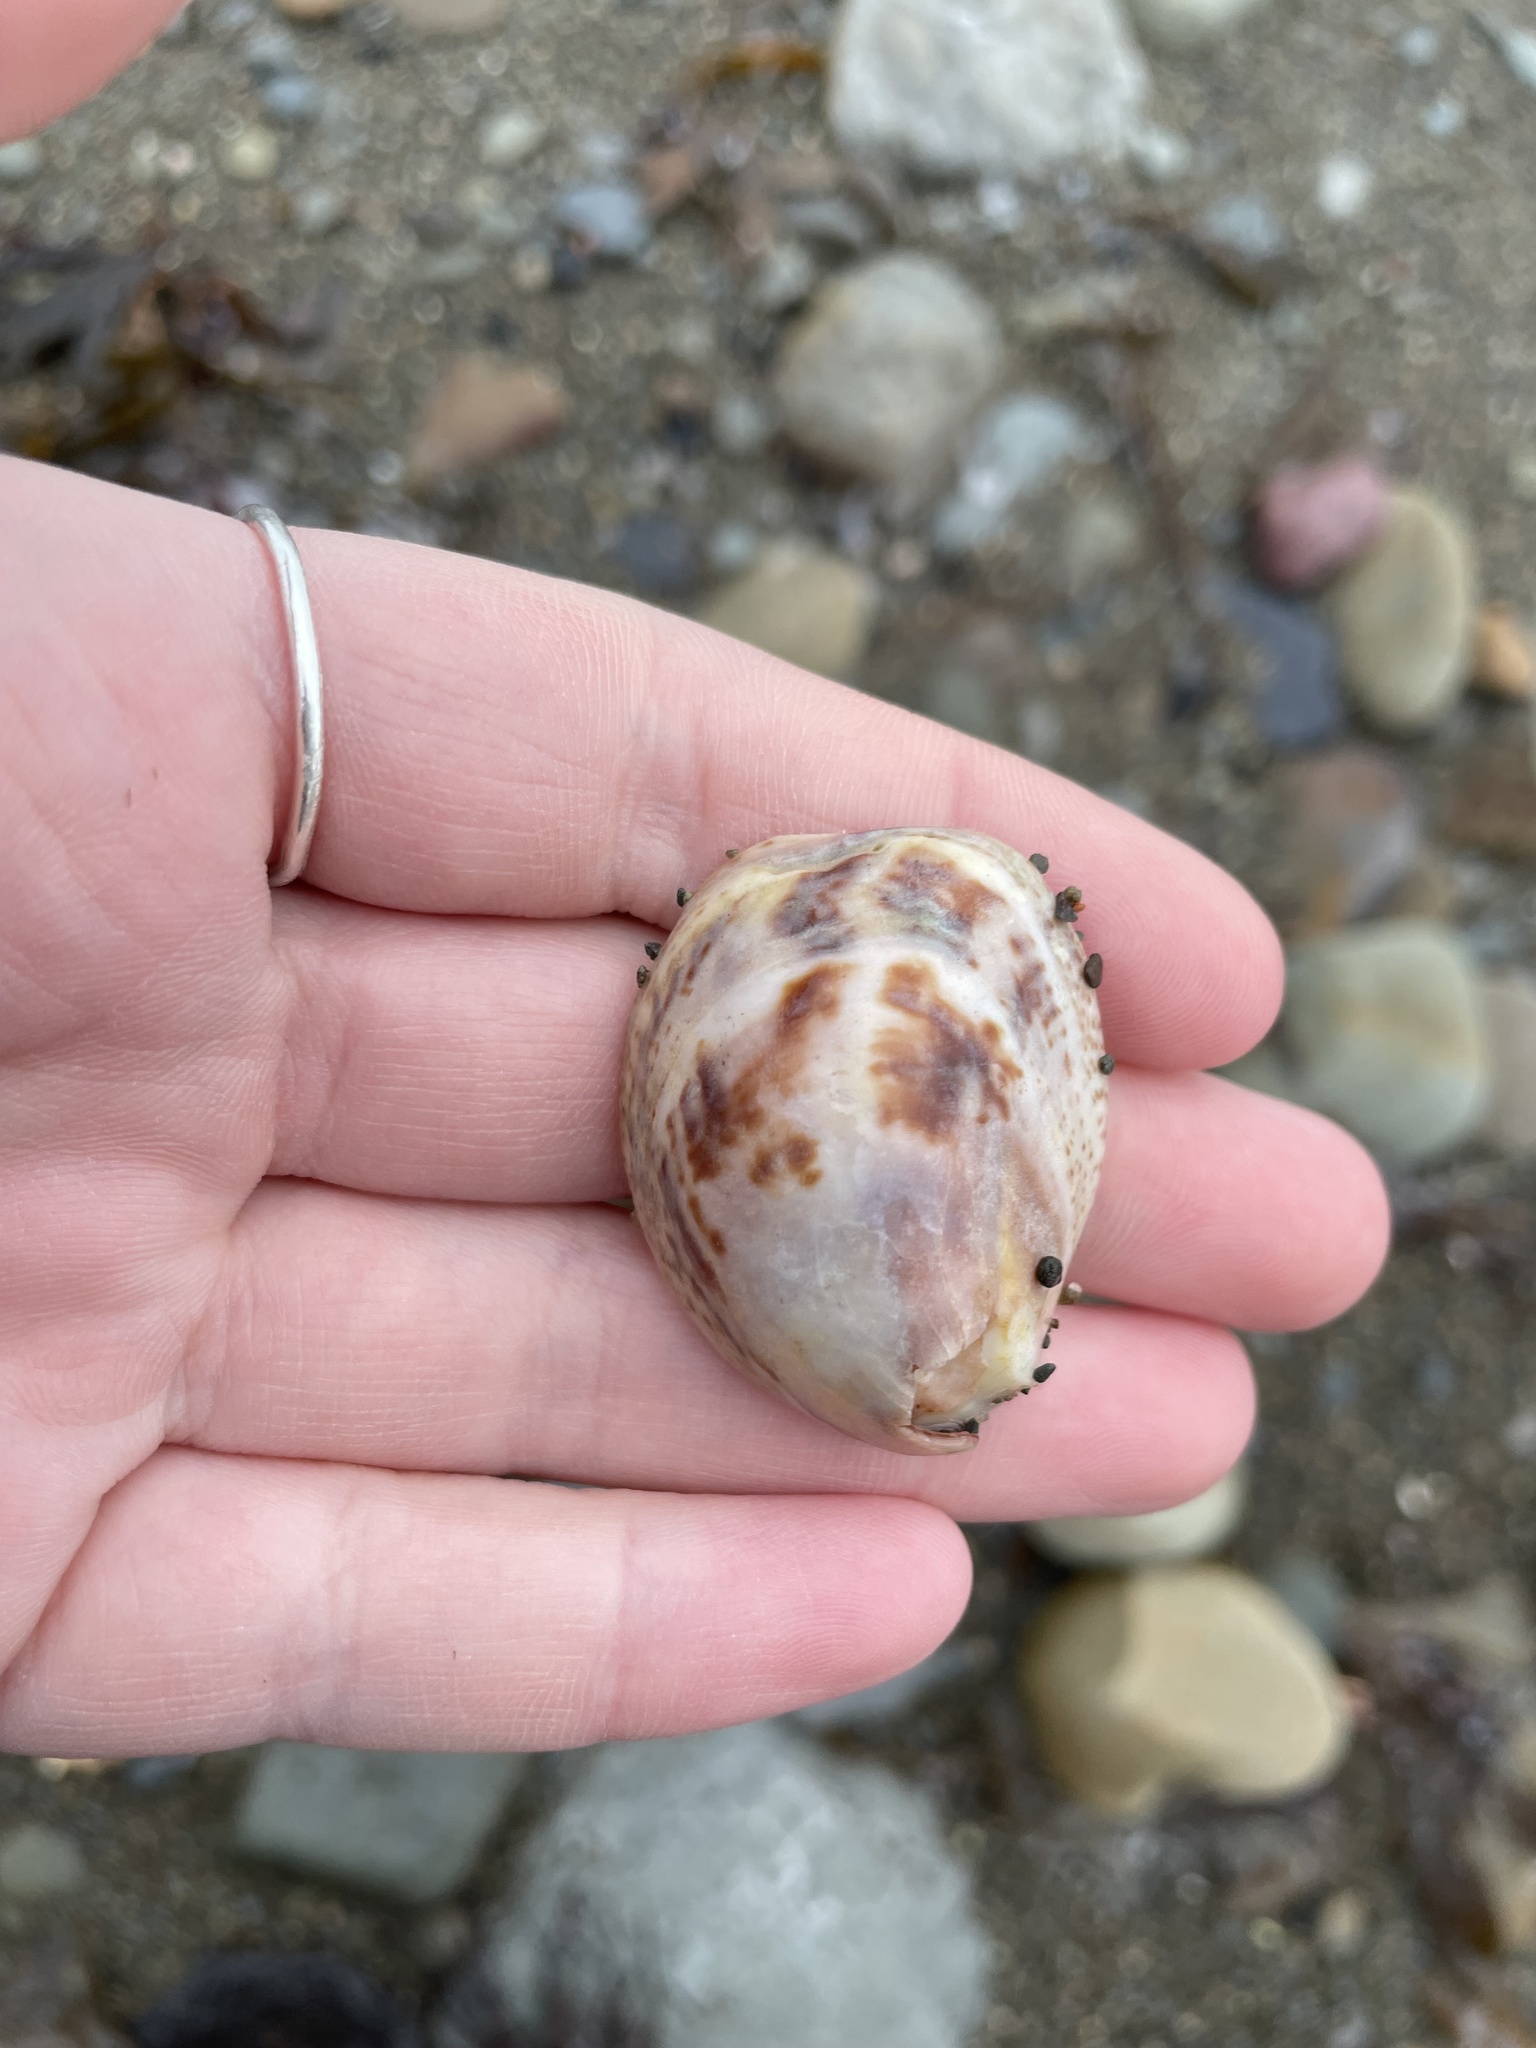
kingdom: Animalia
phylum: Mollusca
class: Gastropoda
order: Littorinimorpha
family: Calyptraeidae
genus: Crepidula
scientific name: Crepidula fornicata
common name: Slipper limpet
